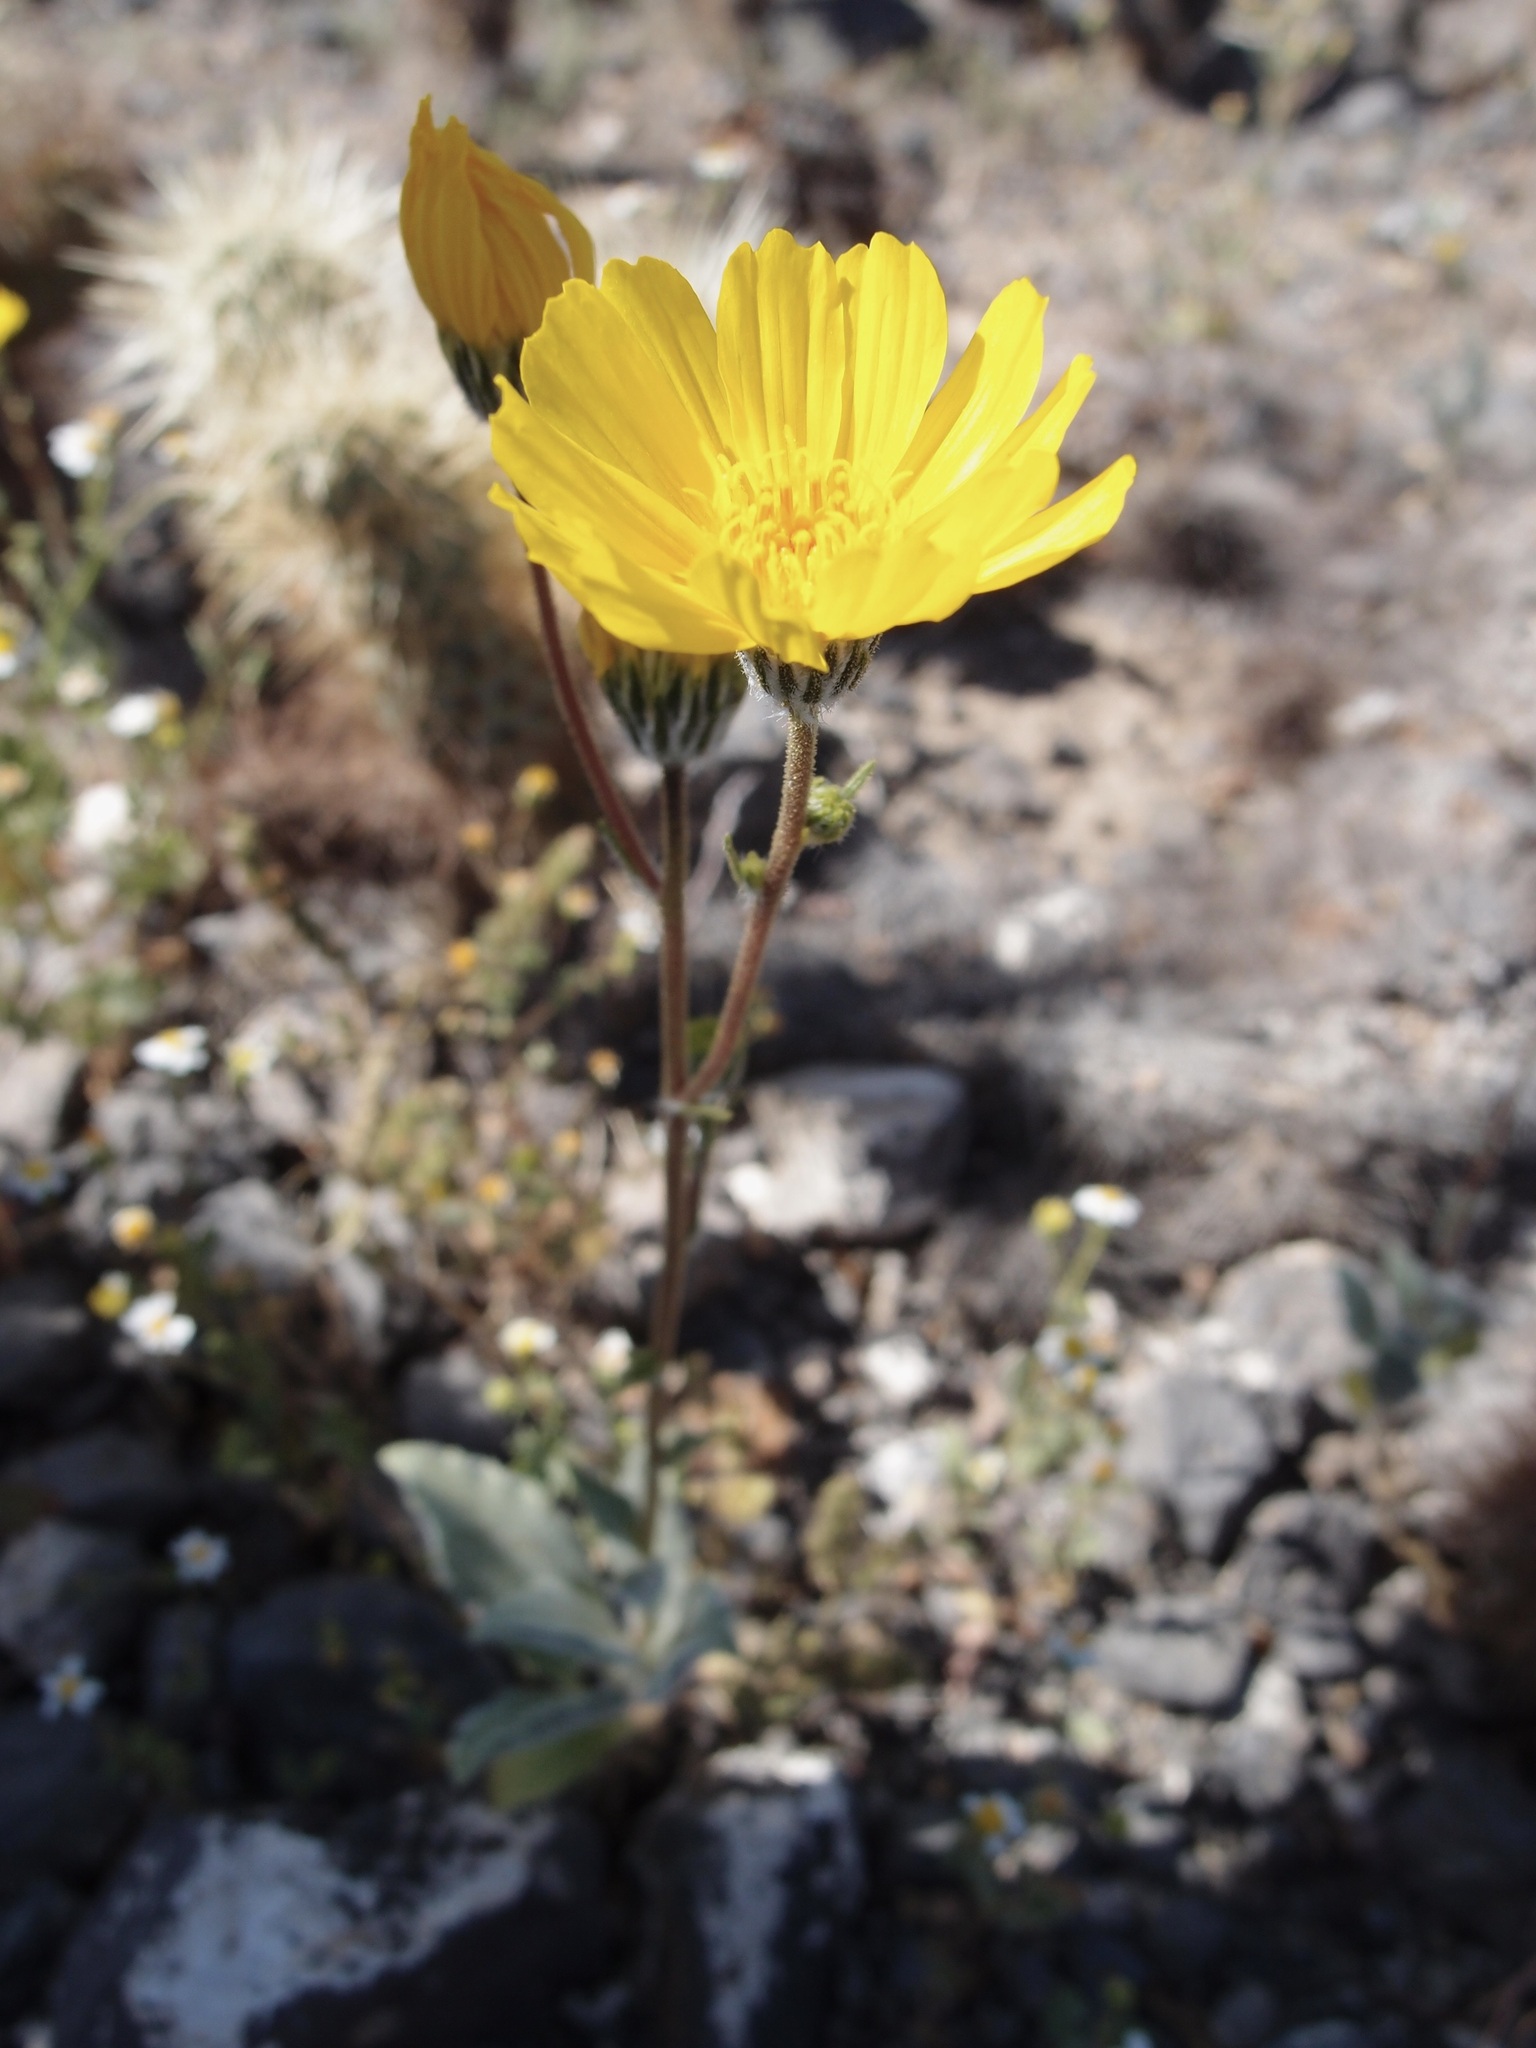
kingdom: Plantae
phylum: Tracheophyta
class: Magnoliopsida
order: Asterales
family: Asteraceae
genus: Geraea
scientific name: Geraea canescens
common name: Desert-gold
